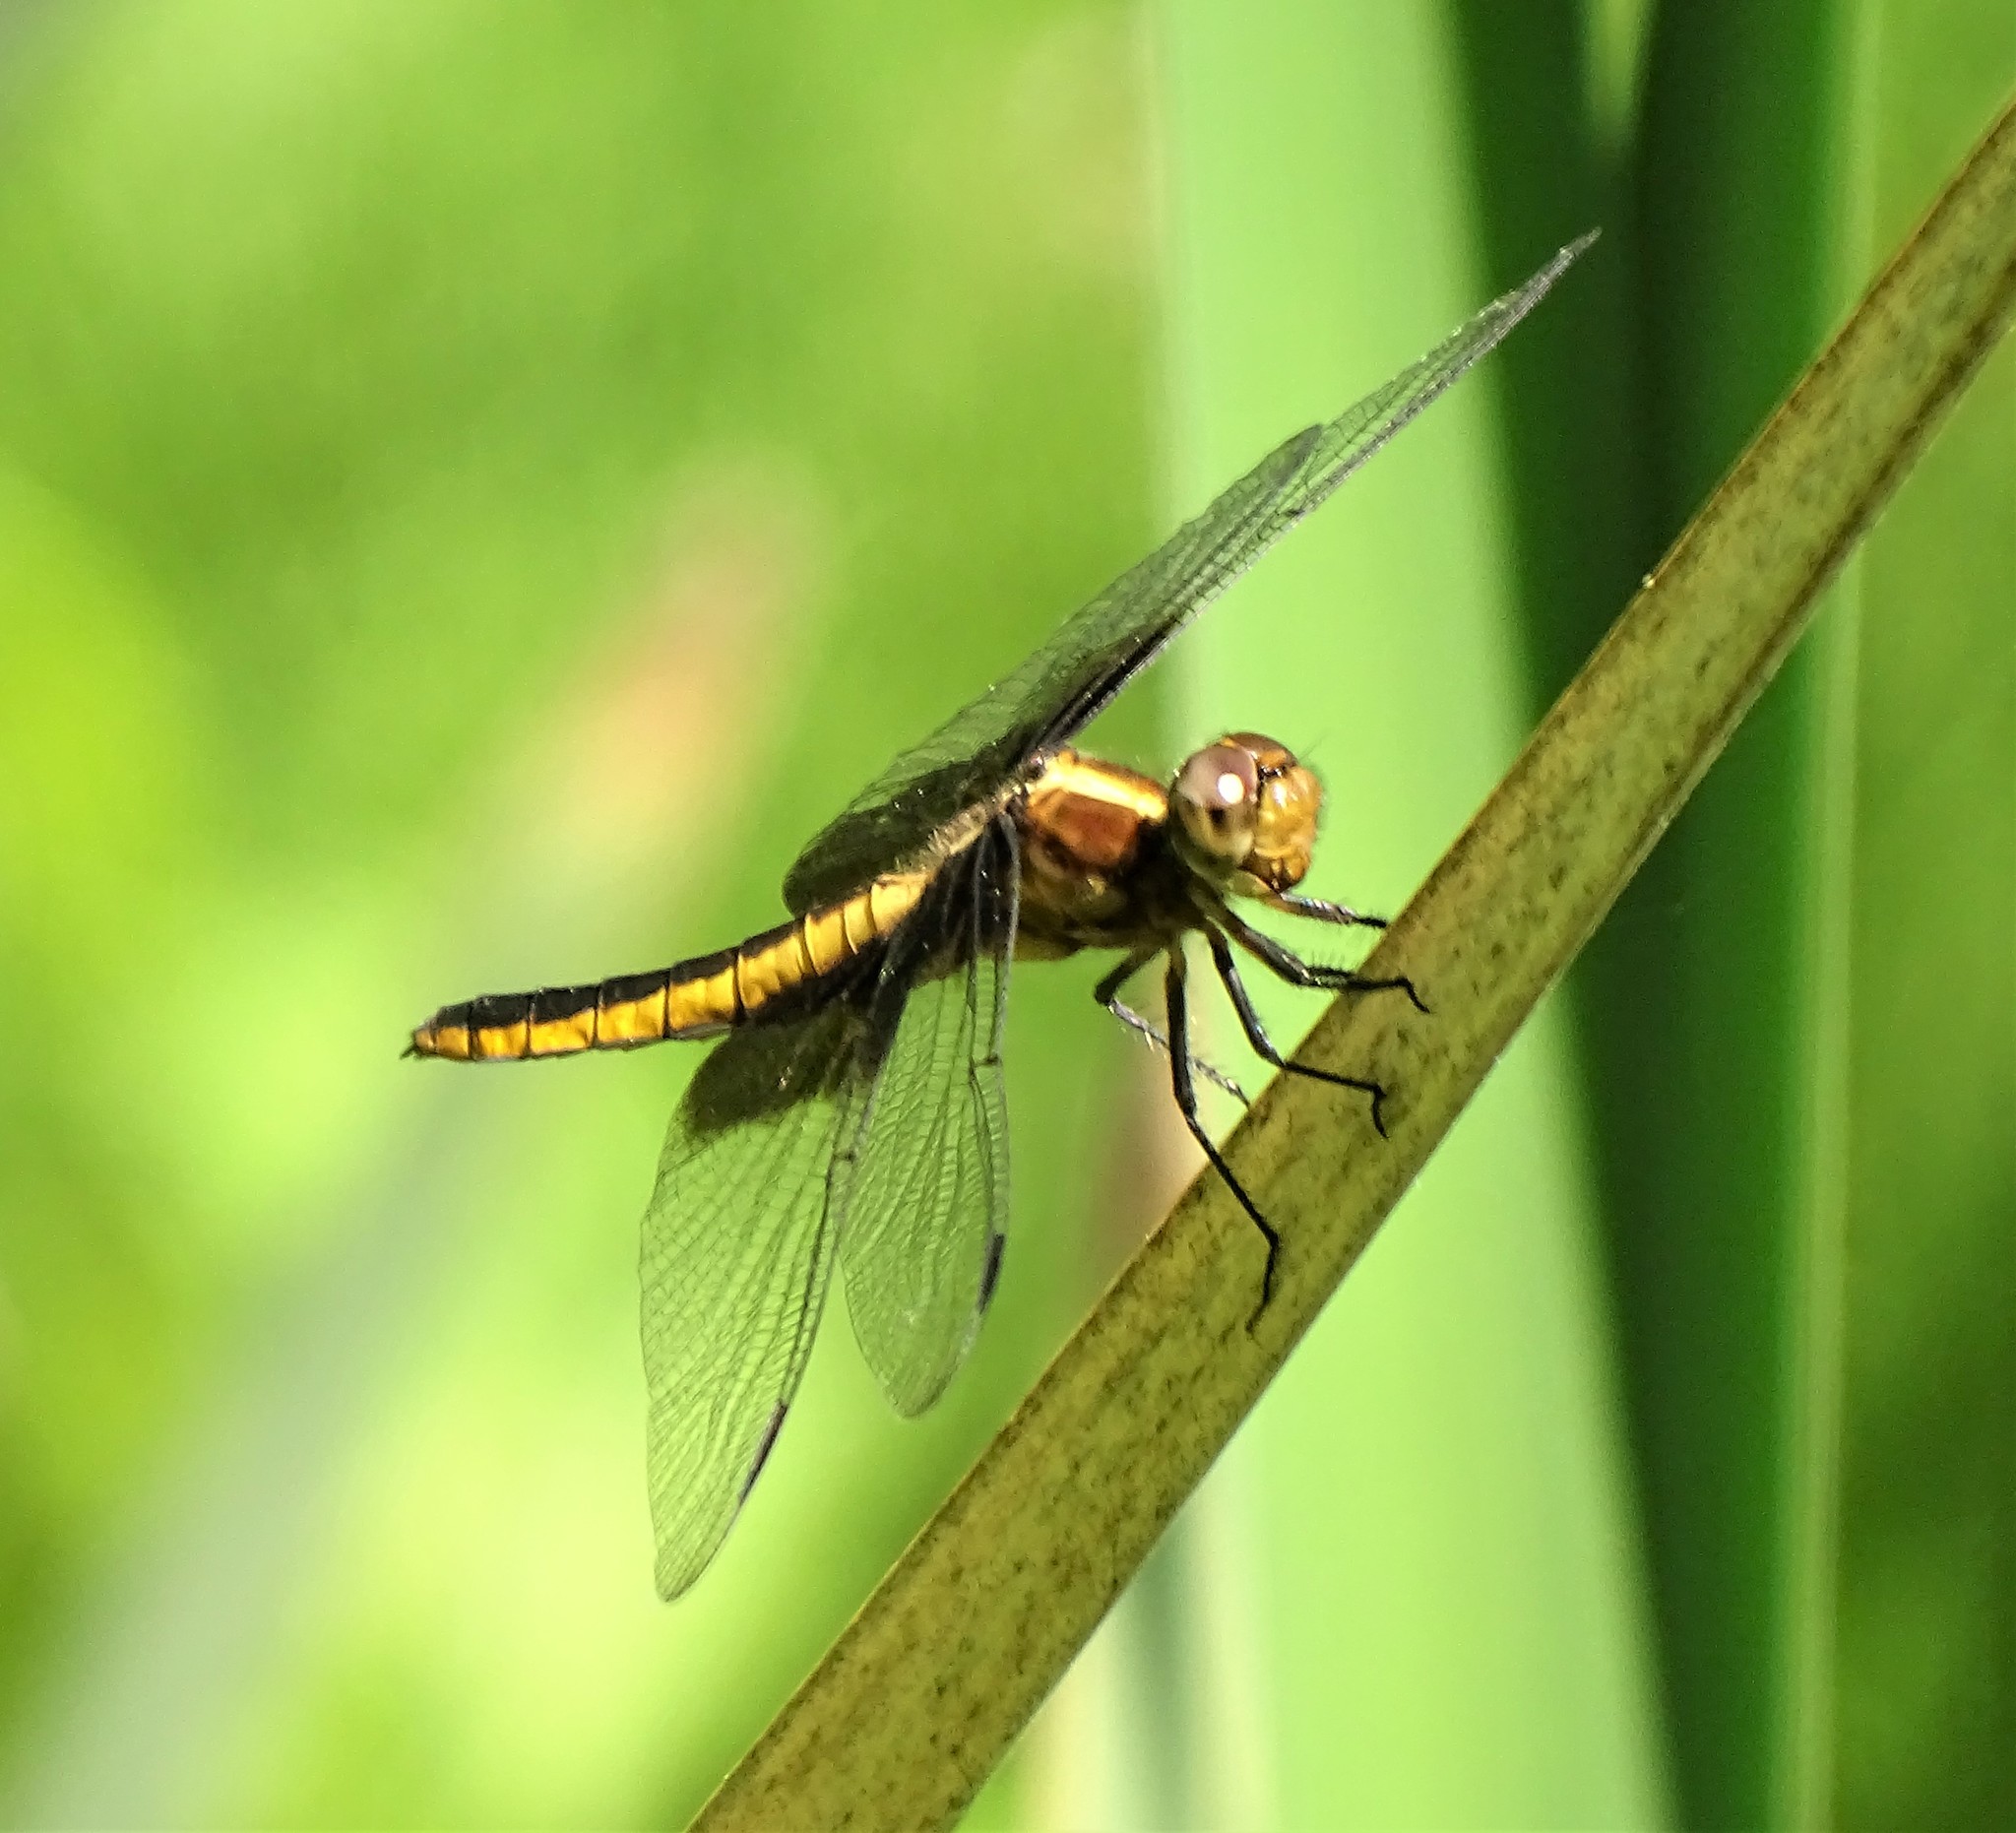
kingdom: Animalia
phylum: Arthropoda
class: Insecta
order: Odonata
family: Libellulidae
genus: Libellula
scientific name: Libellula luctuosa
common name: Widow skimmer
